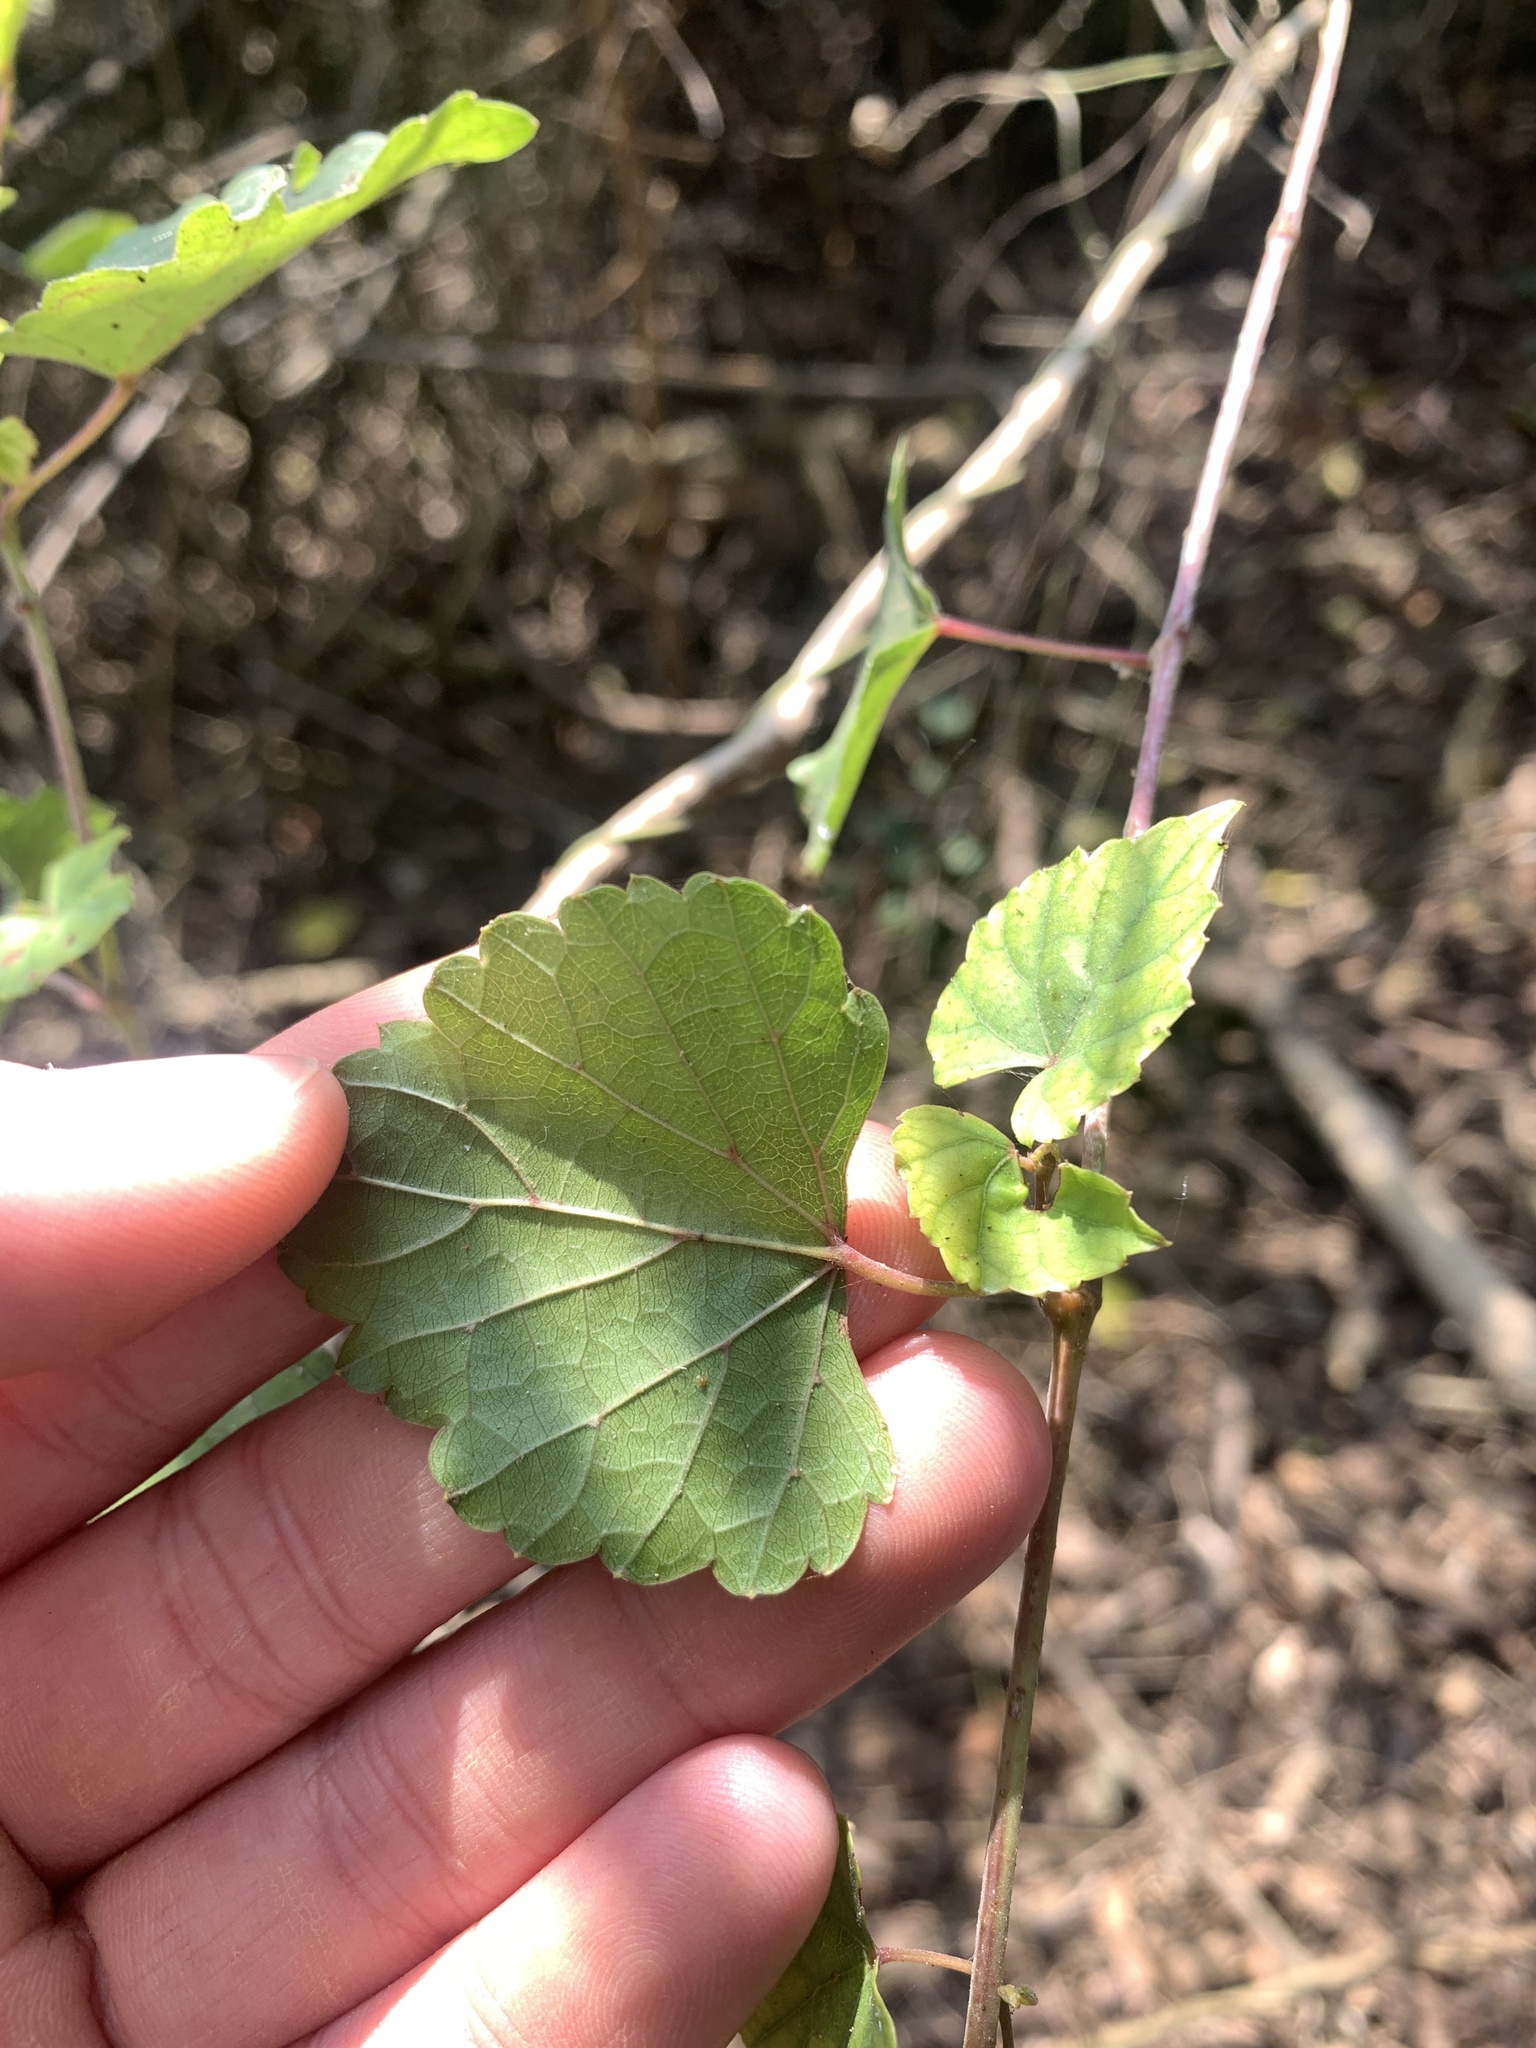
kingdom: Plantae
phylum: Tracheophyta
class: Magnoliopsida
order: Vitales
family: Vitaceae
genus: Ampelopsis
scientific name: Ampelopsis glandulosa
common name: Amur peppervine
